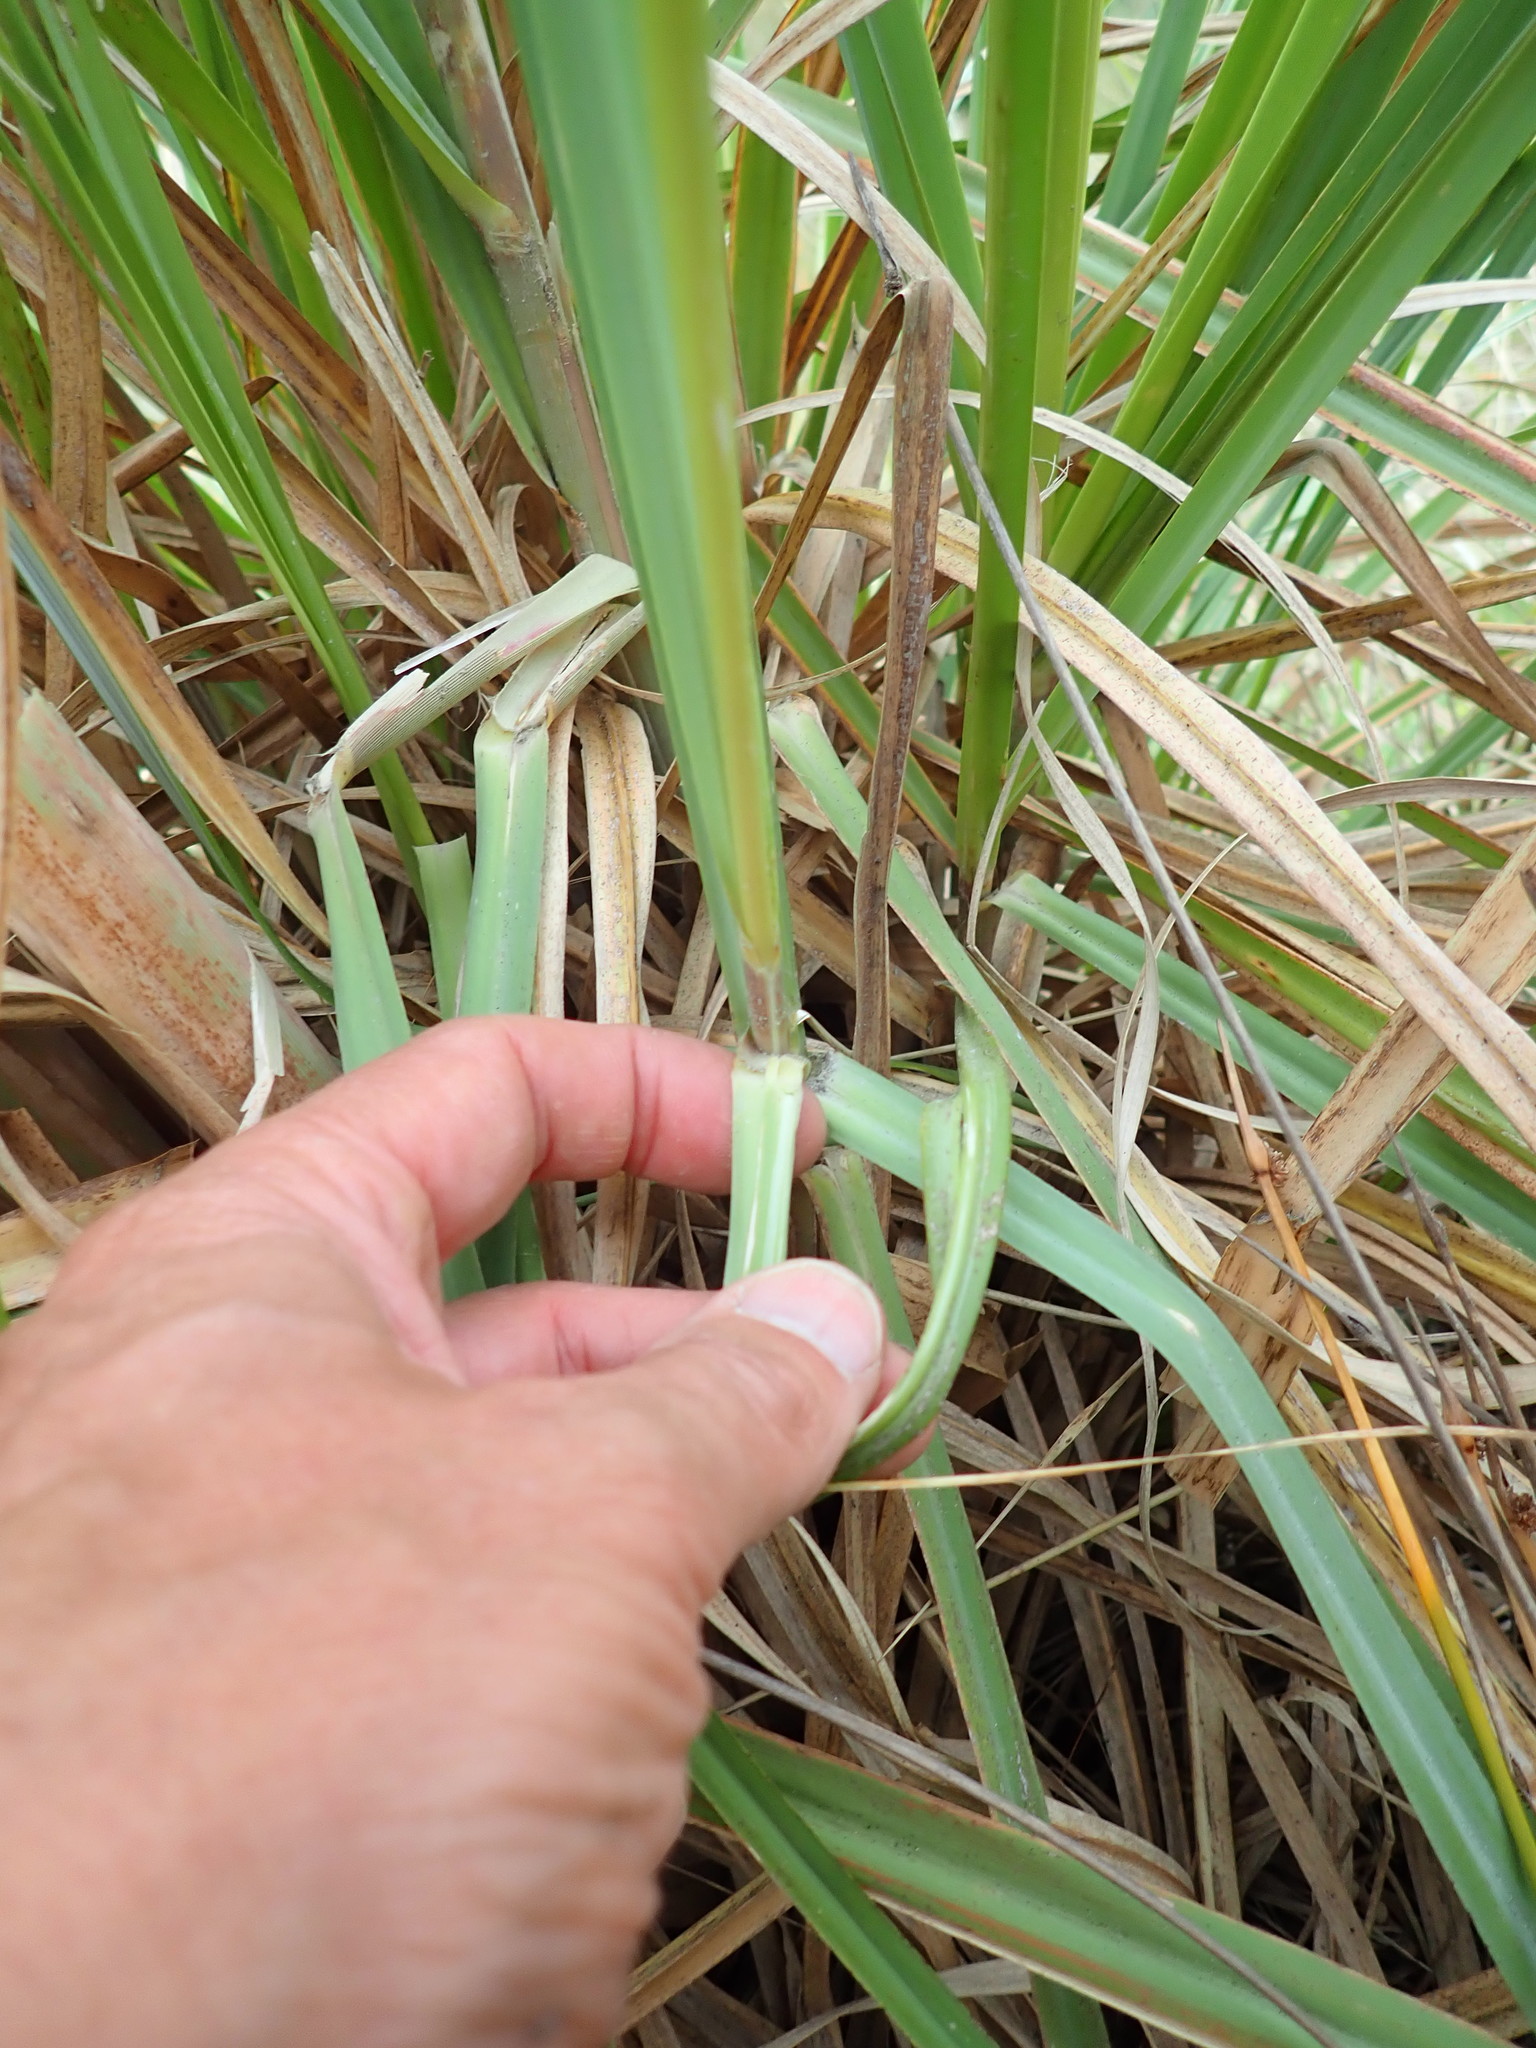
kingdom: Plantae
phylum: Tracheophyta
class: Liliopsida
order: Poales
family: Poaceae
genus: Cortaderia
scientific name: Cortaderia selloana
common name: Uruguayan pampas grass
